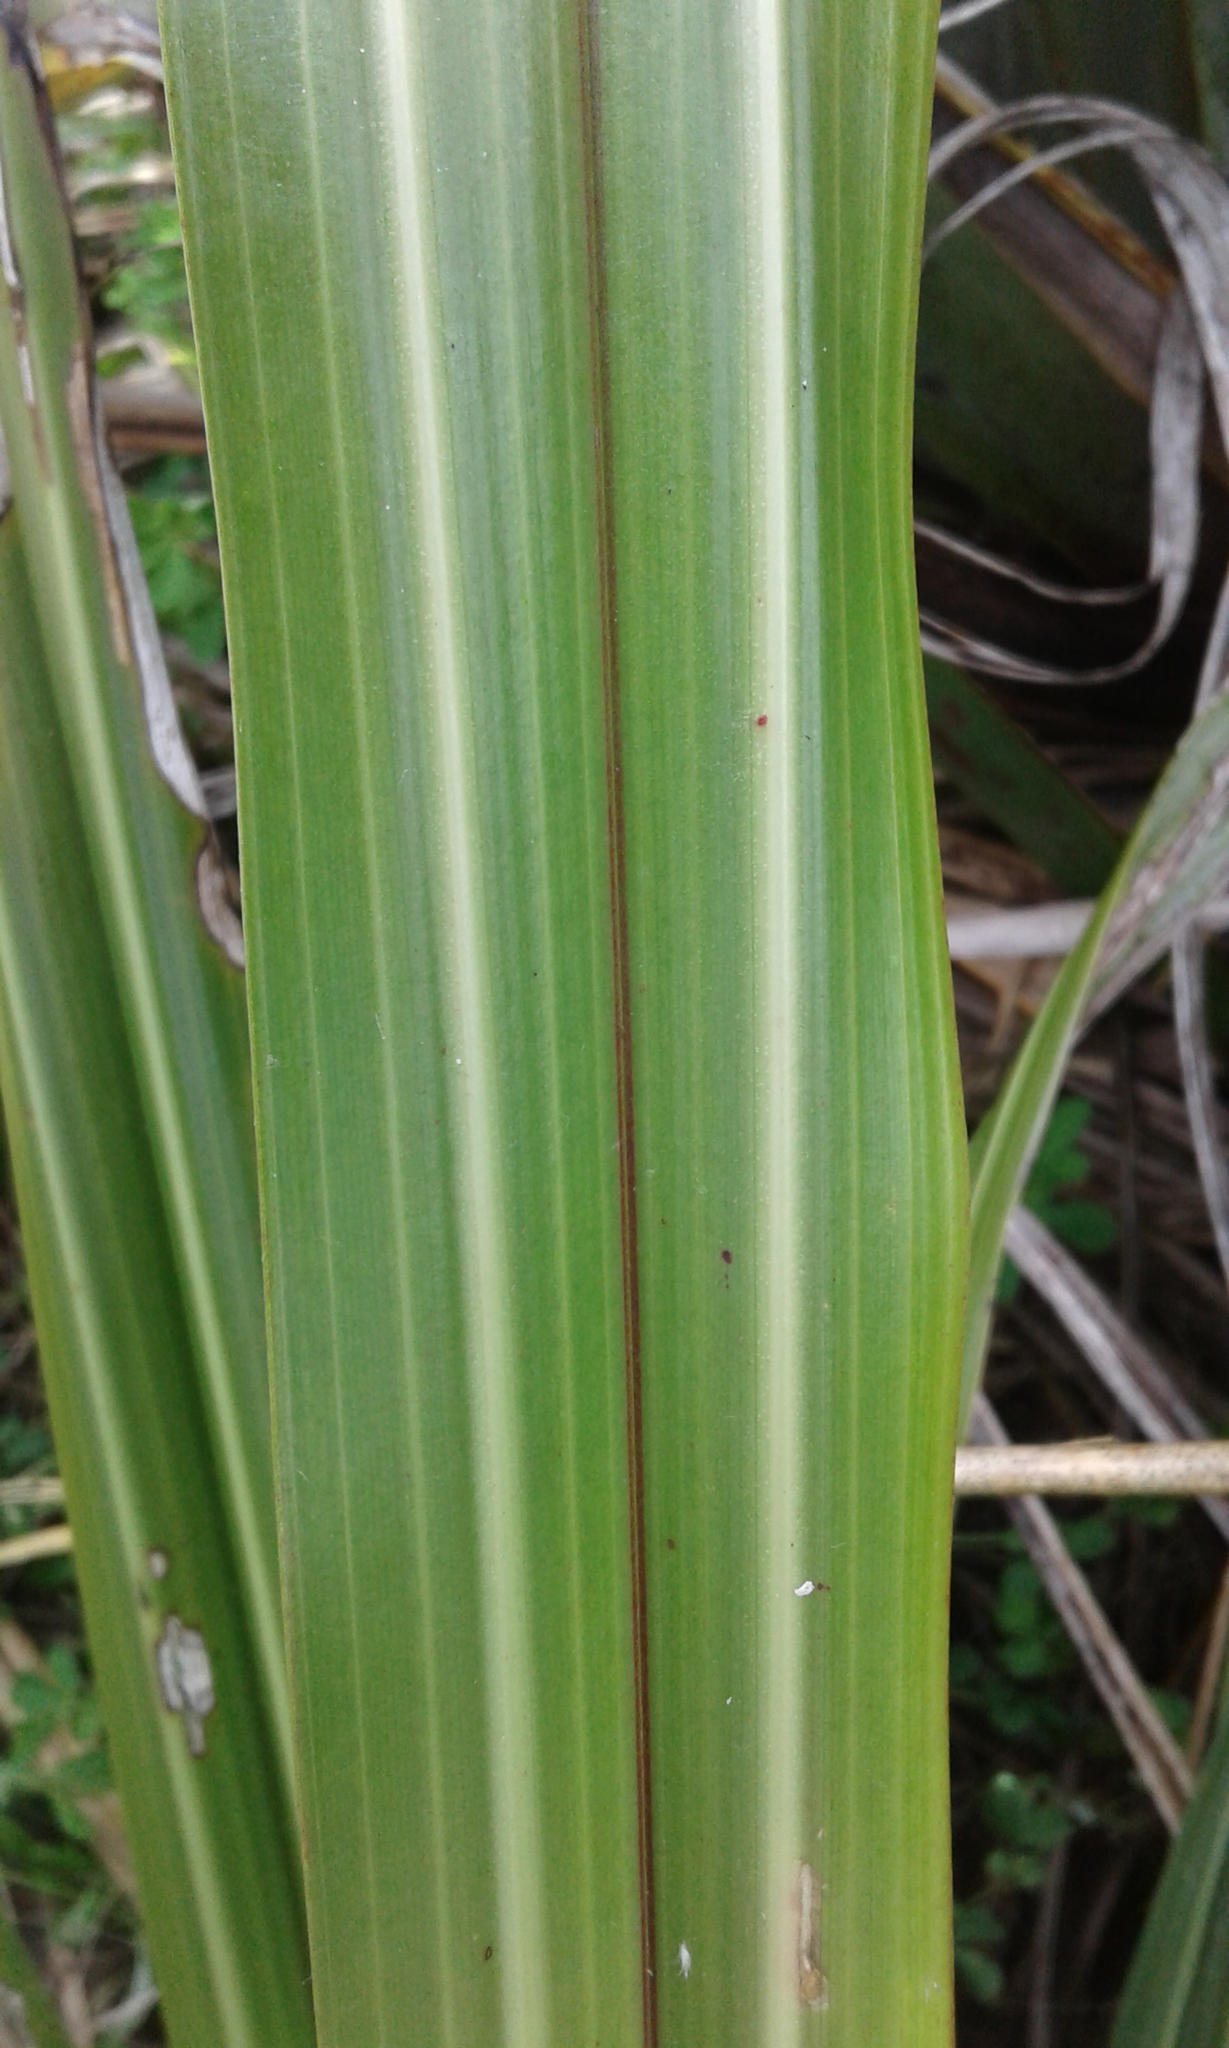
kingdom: Plantae
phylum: Tracheophyta
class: Liliopsida
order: Asparagales
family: Asteliaceae
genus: Astelia
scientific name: Astelia fragrans
